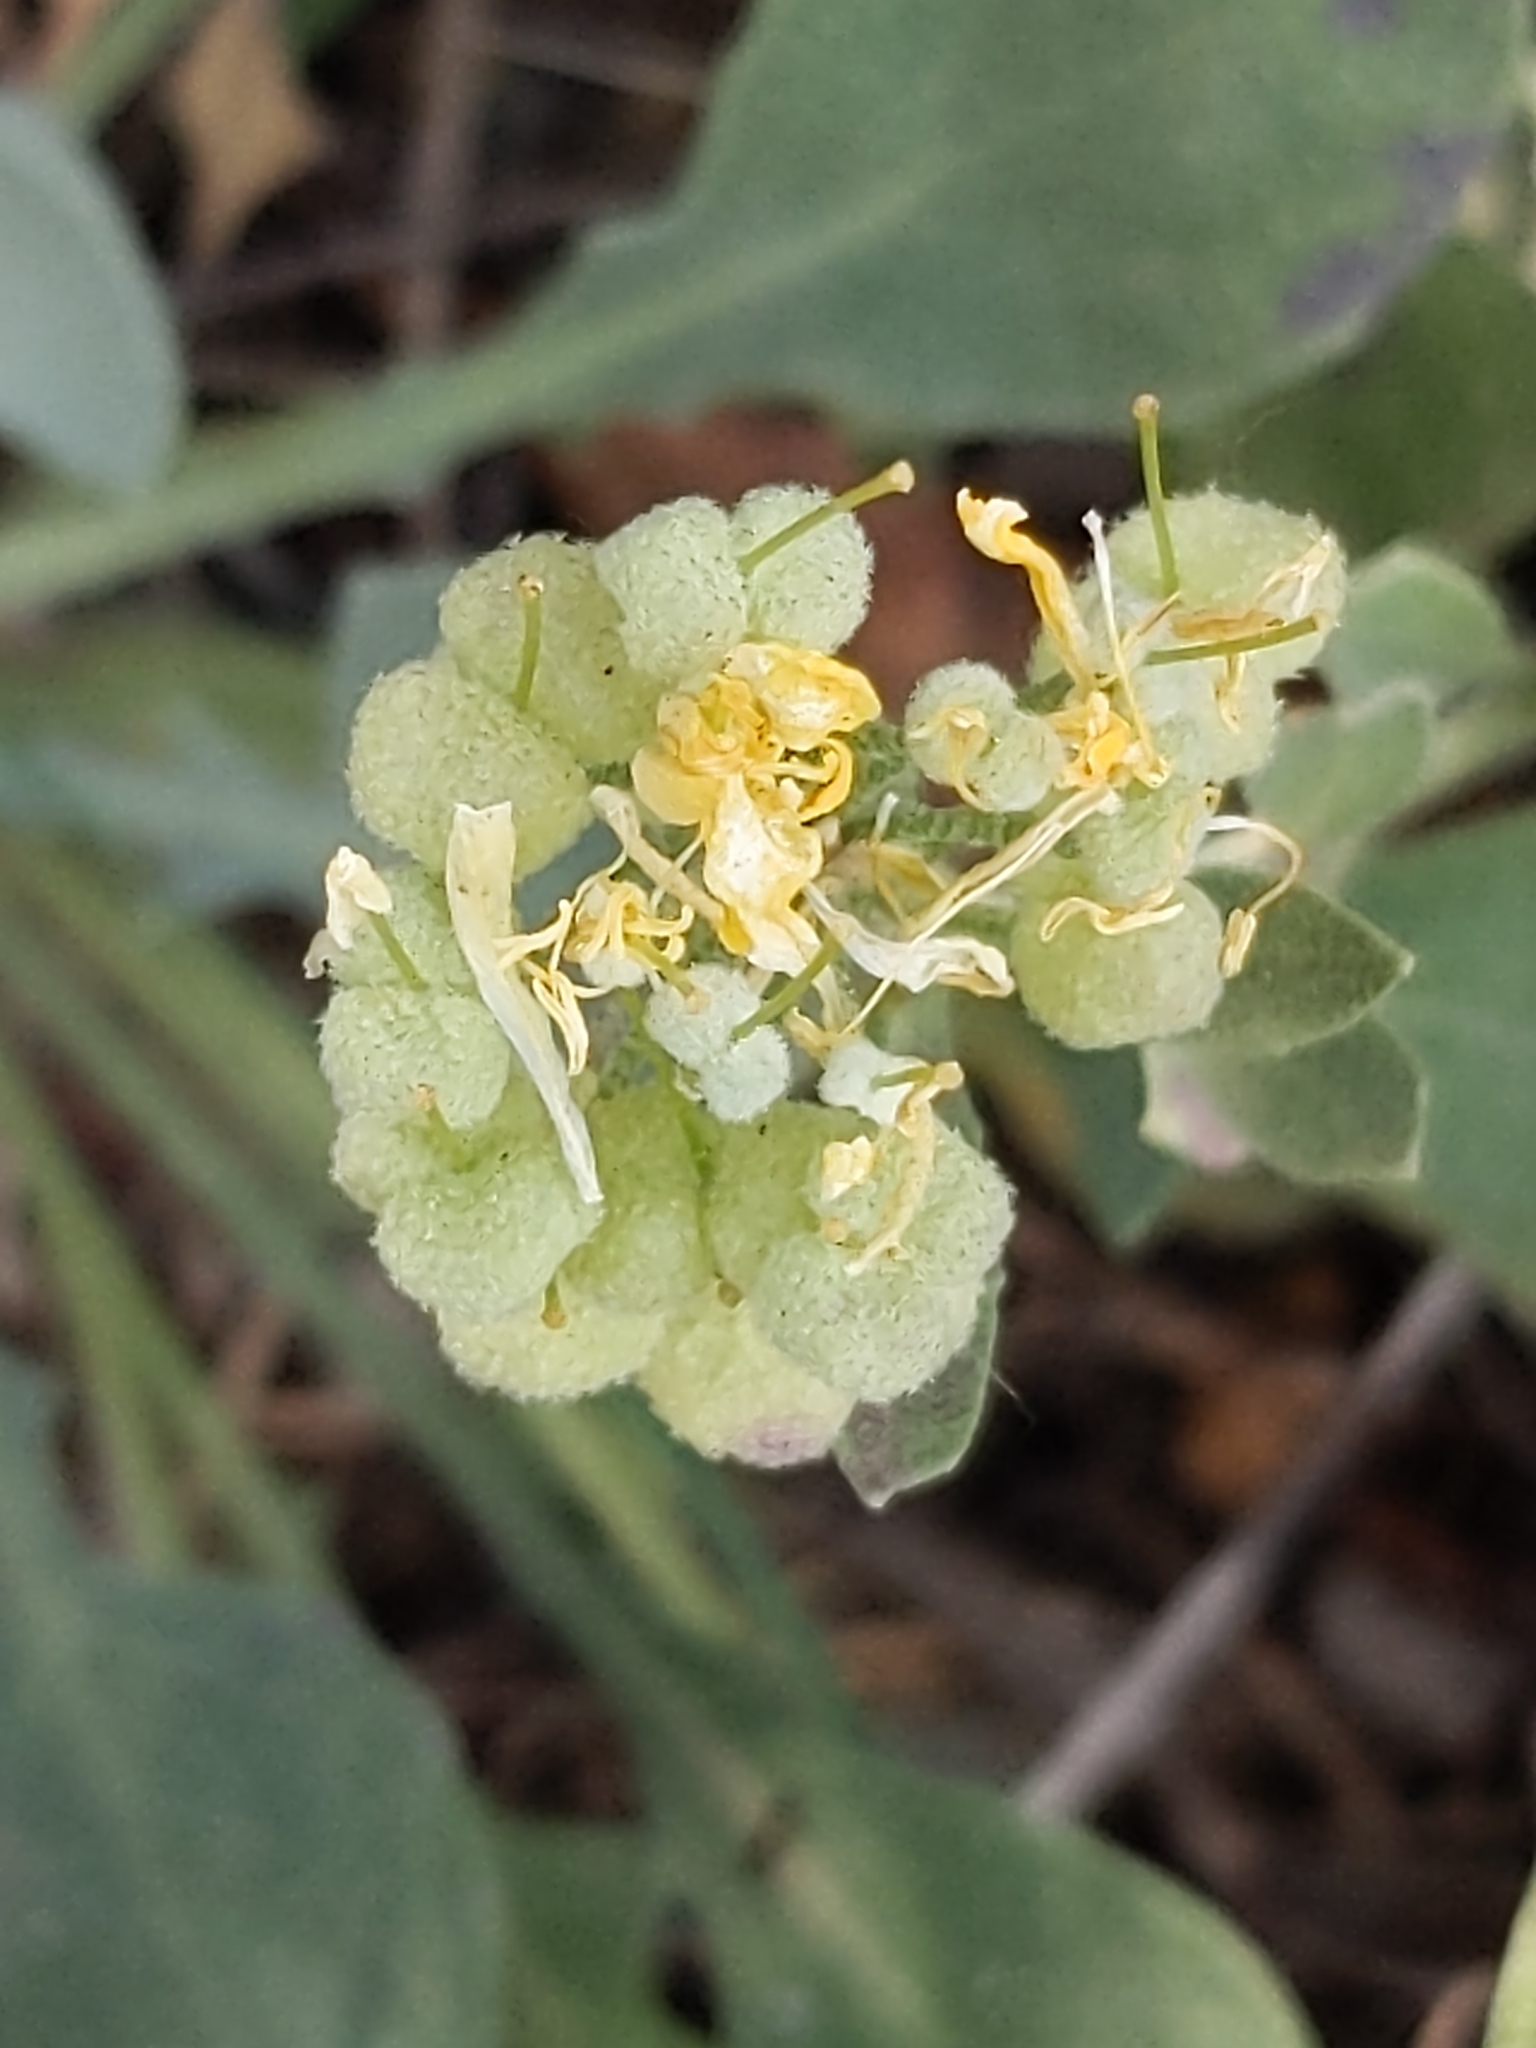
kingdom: Plantae
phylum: Tracheophyta
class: Magnoliopsida
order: Brassicales
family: Brassicaceae
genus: Physaria
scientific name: Physaria vitulifera
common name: Roundtrip twinpod
